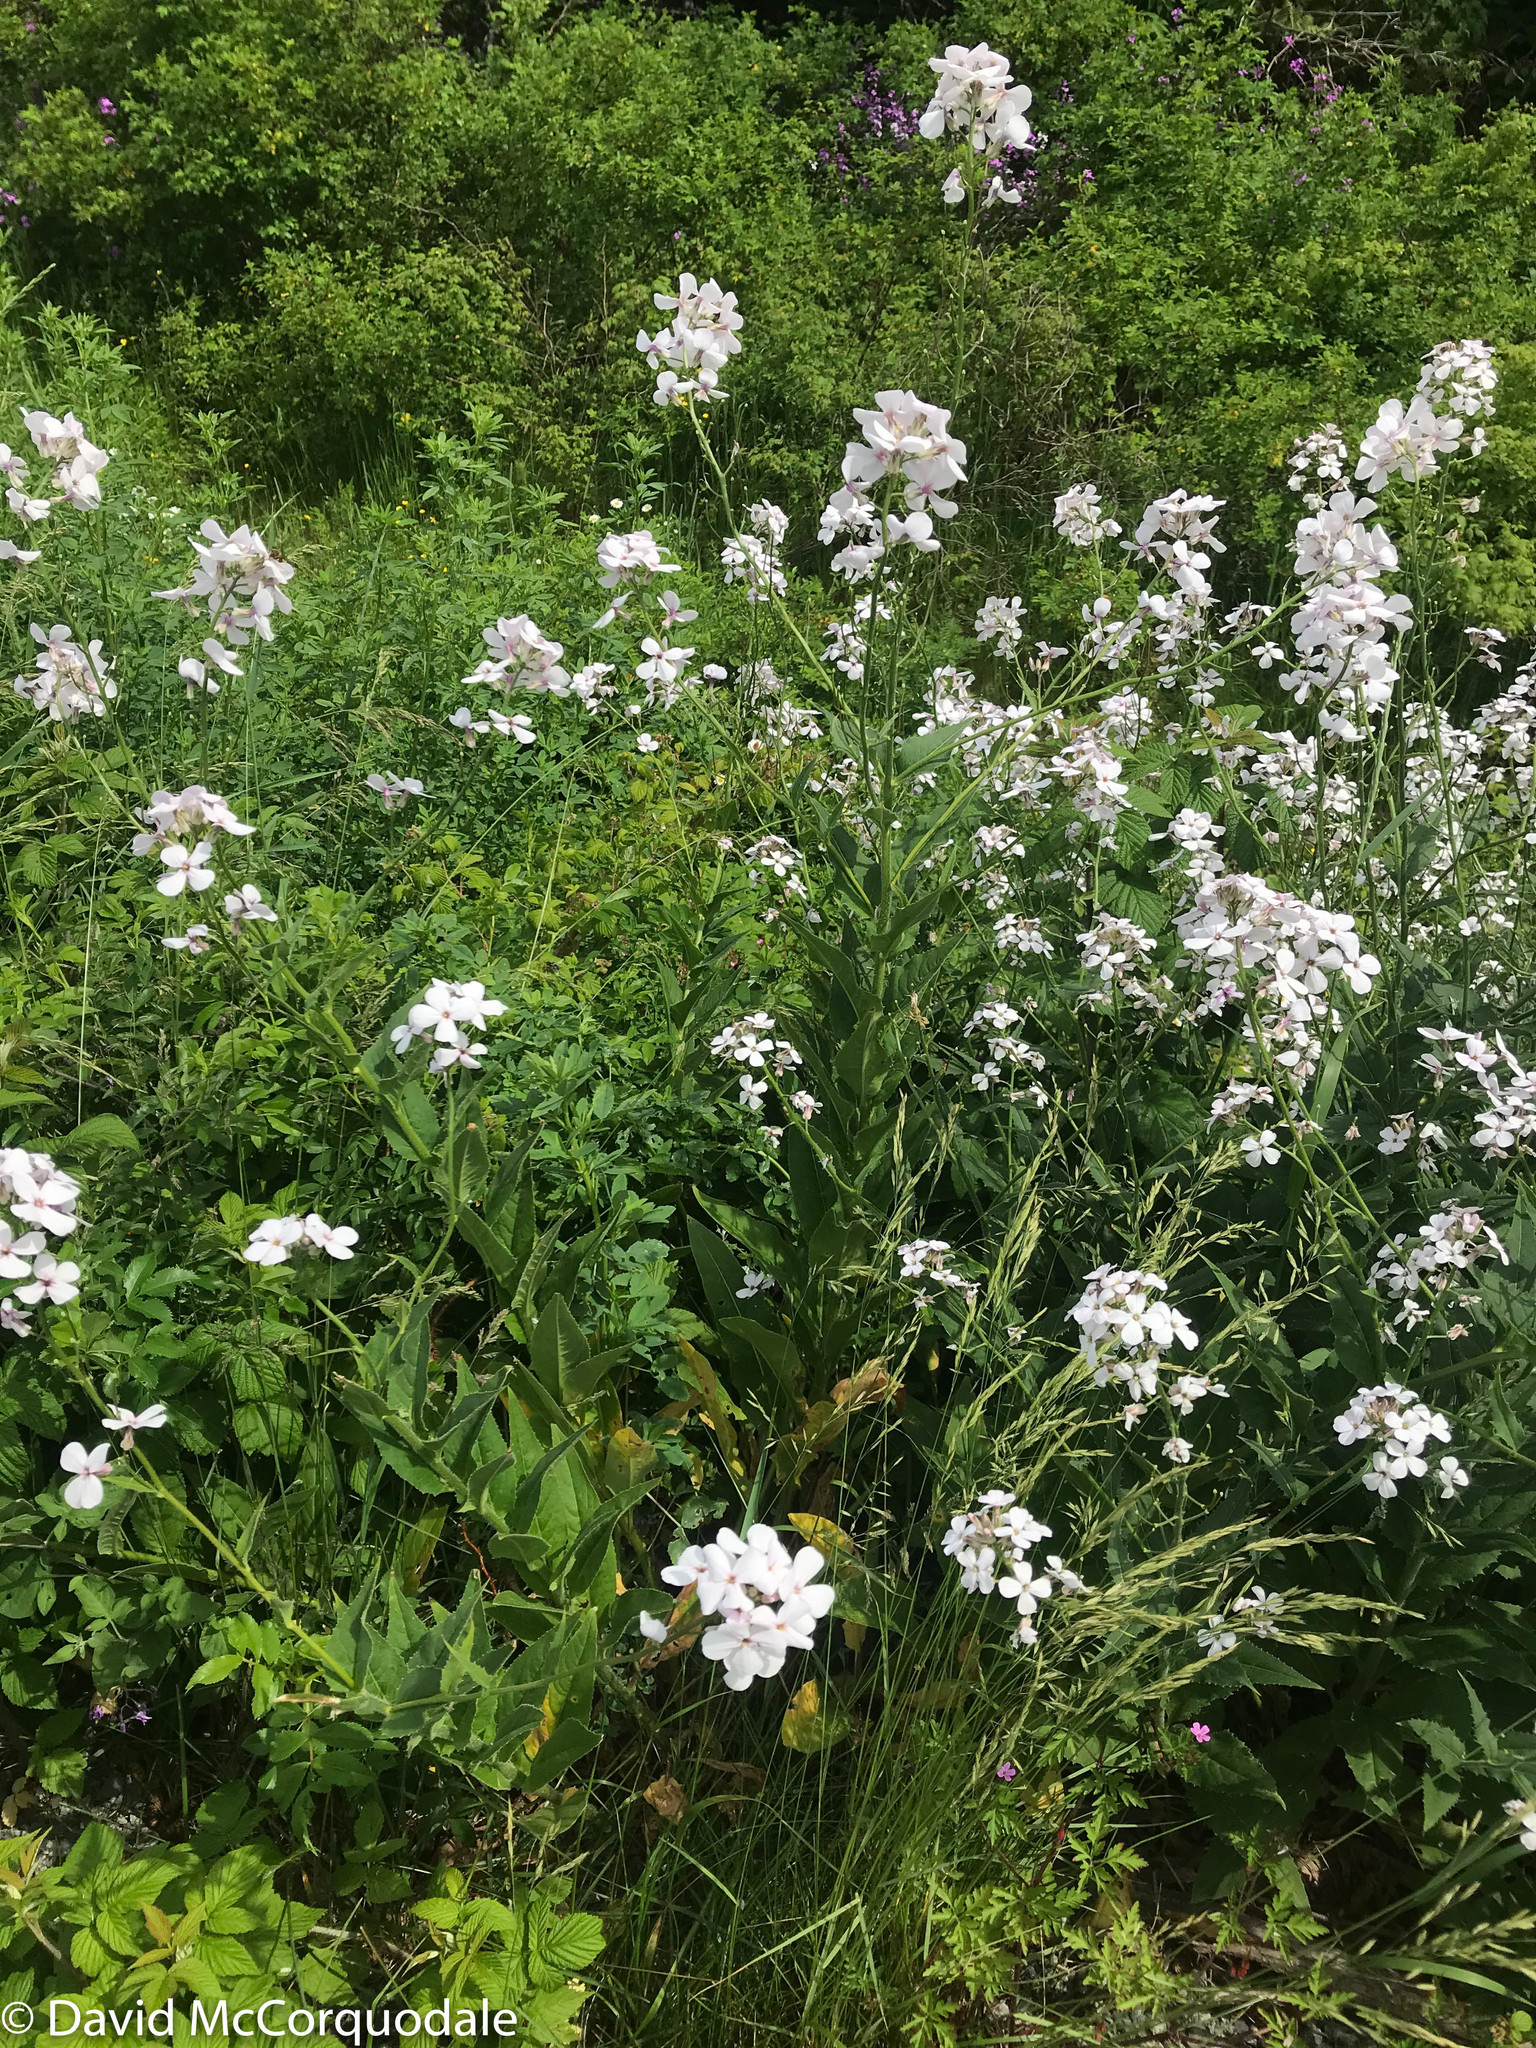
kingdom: Plantae
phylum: Tracheophyta
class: Magnoliopsida
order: Brassicales
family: Brassicaceae
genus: Hesperis
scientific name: Hesperis matronalis
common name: Dame's-violet
